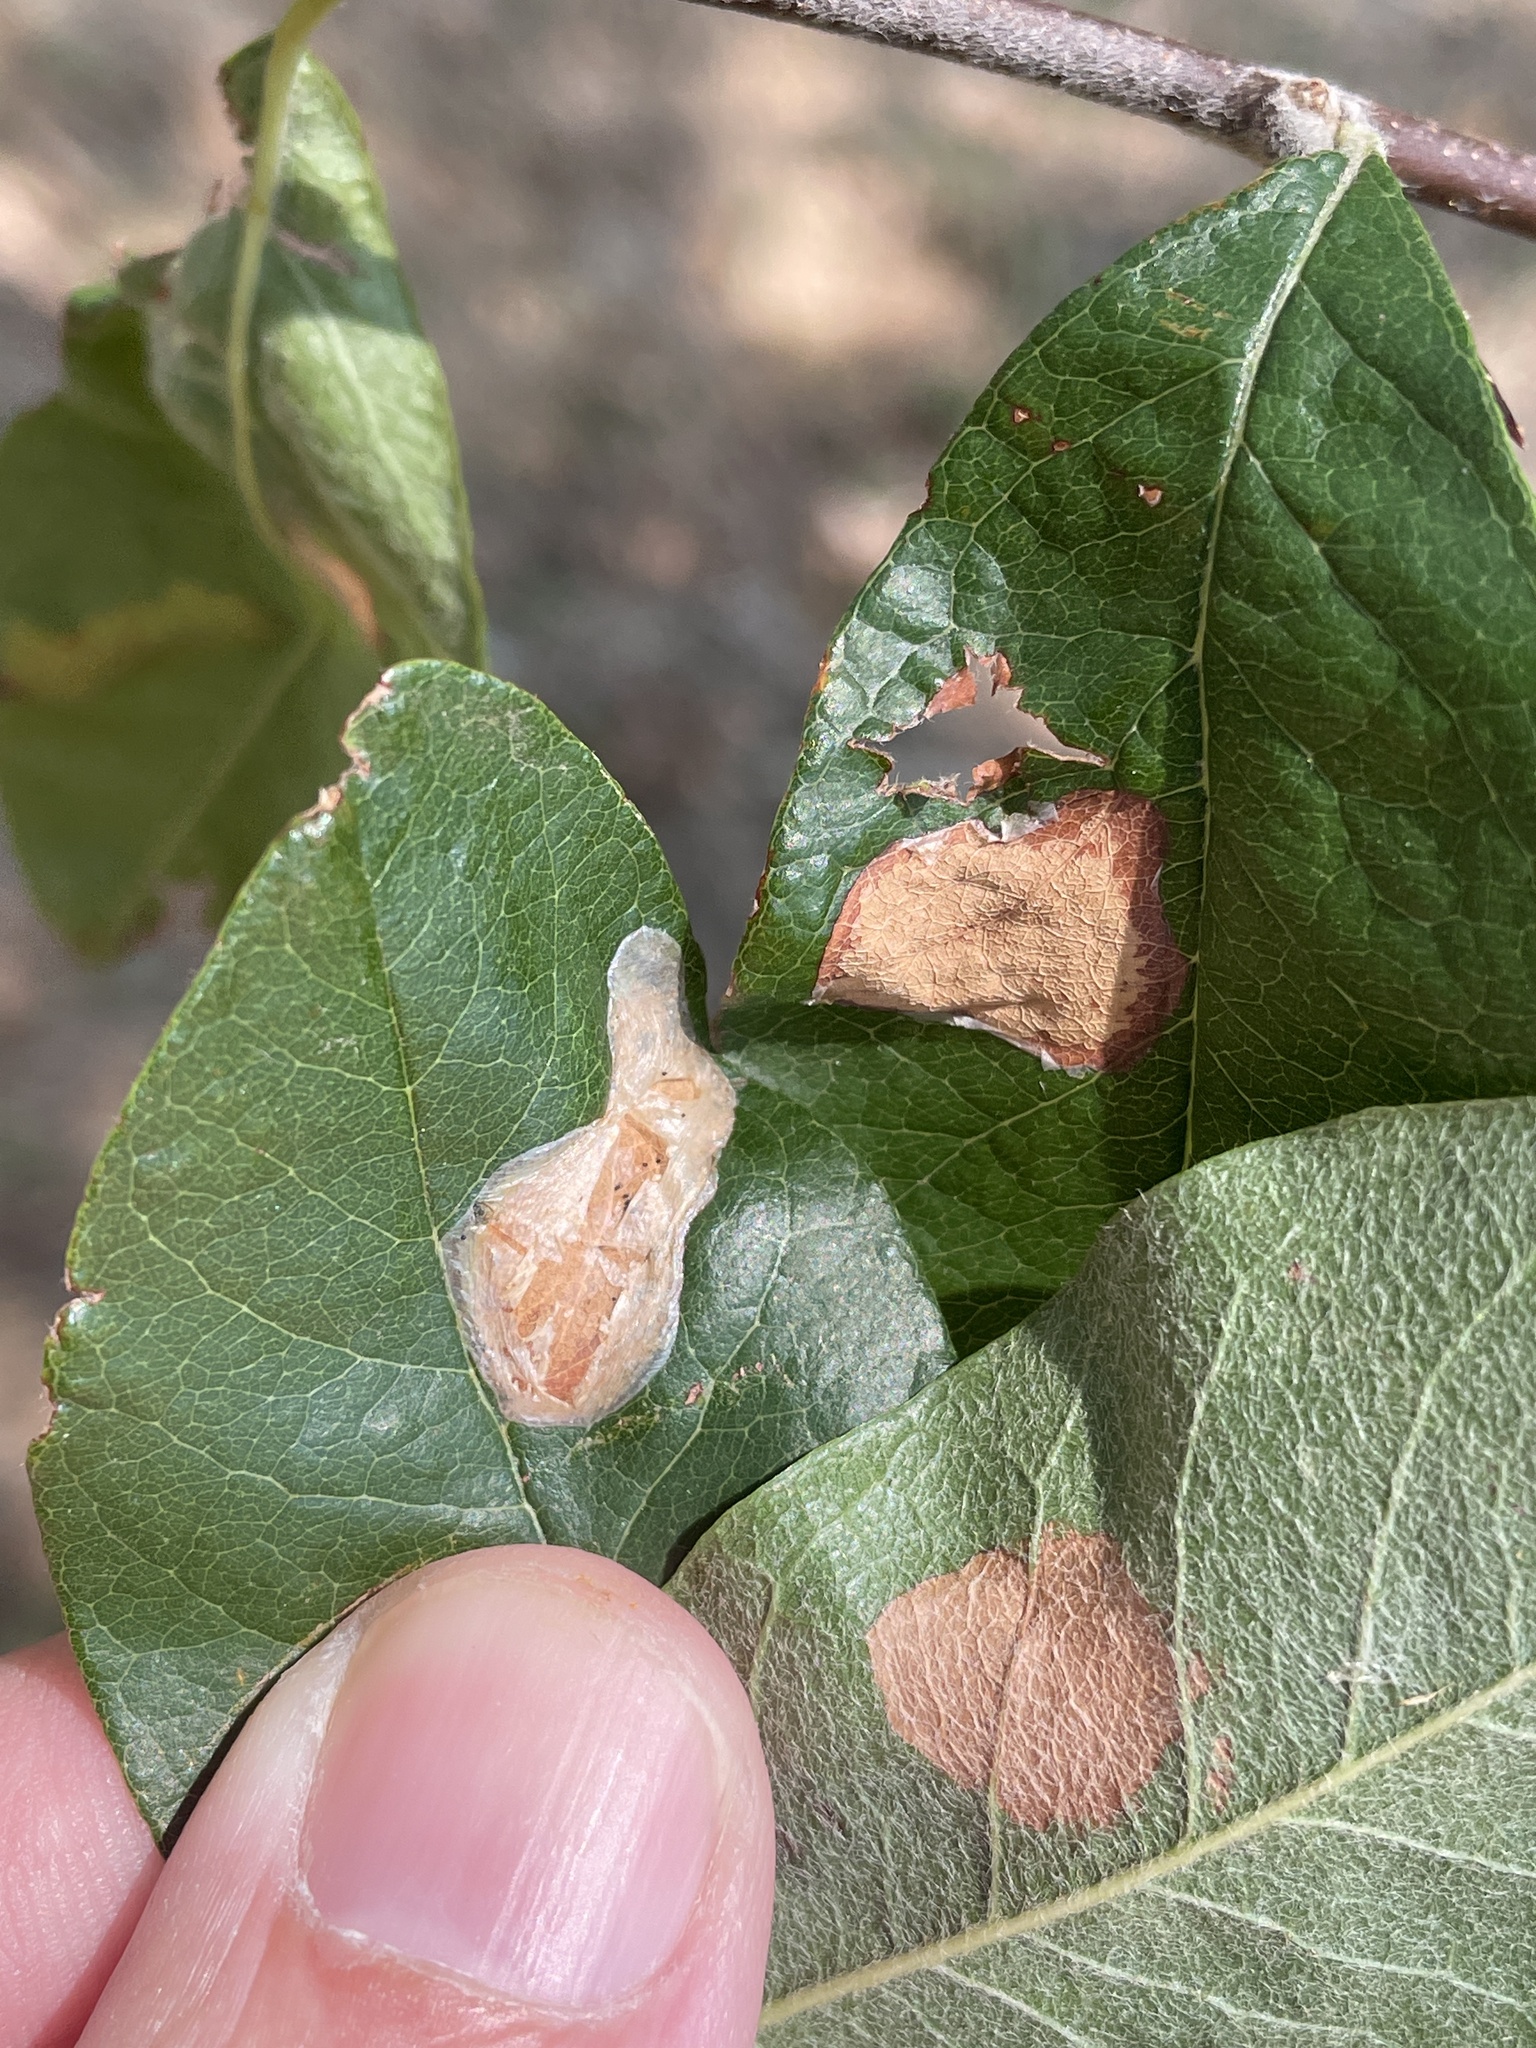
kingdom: Animalia
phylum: Arthropoda
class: Insecta
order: Lepidoptera
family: Gracillariidae
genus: Parectopa
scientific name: Parectopa bumeliella
